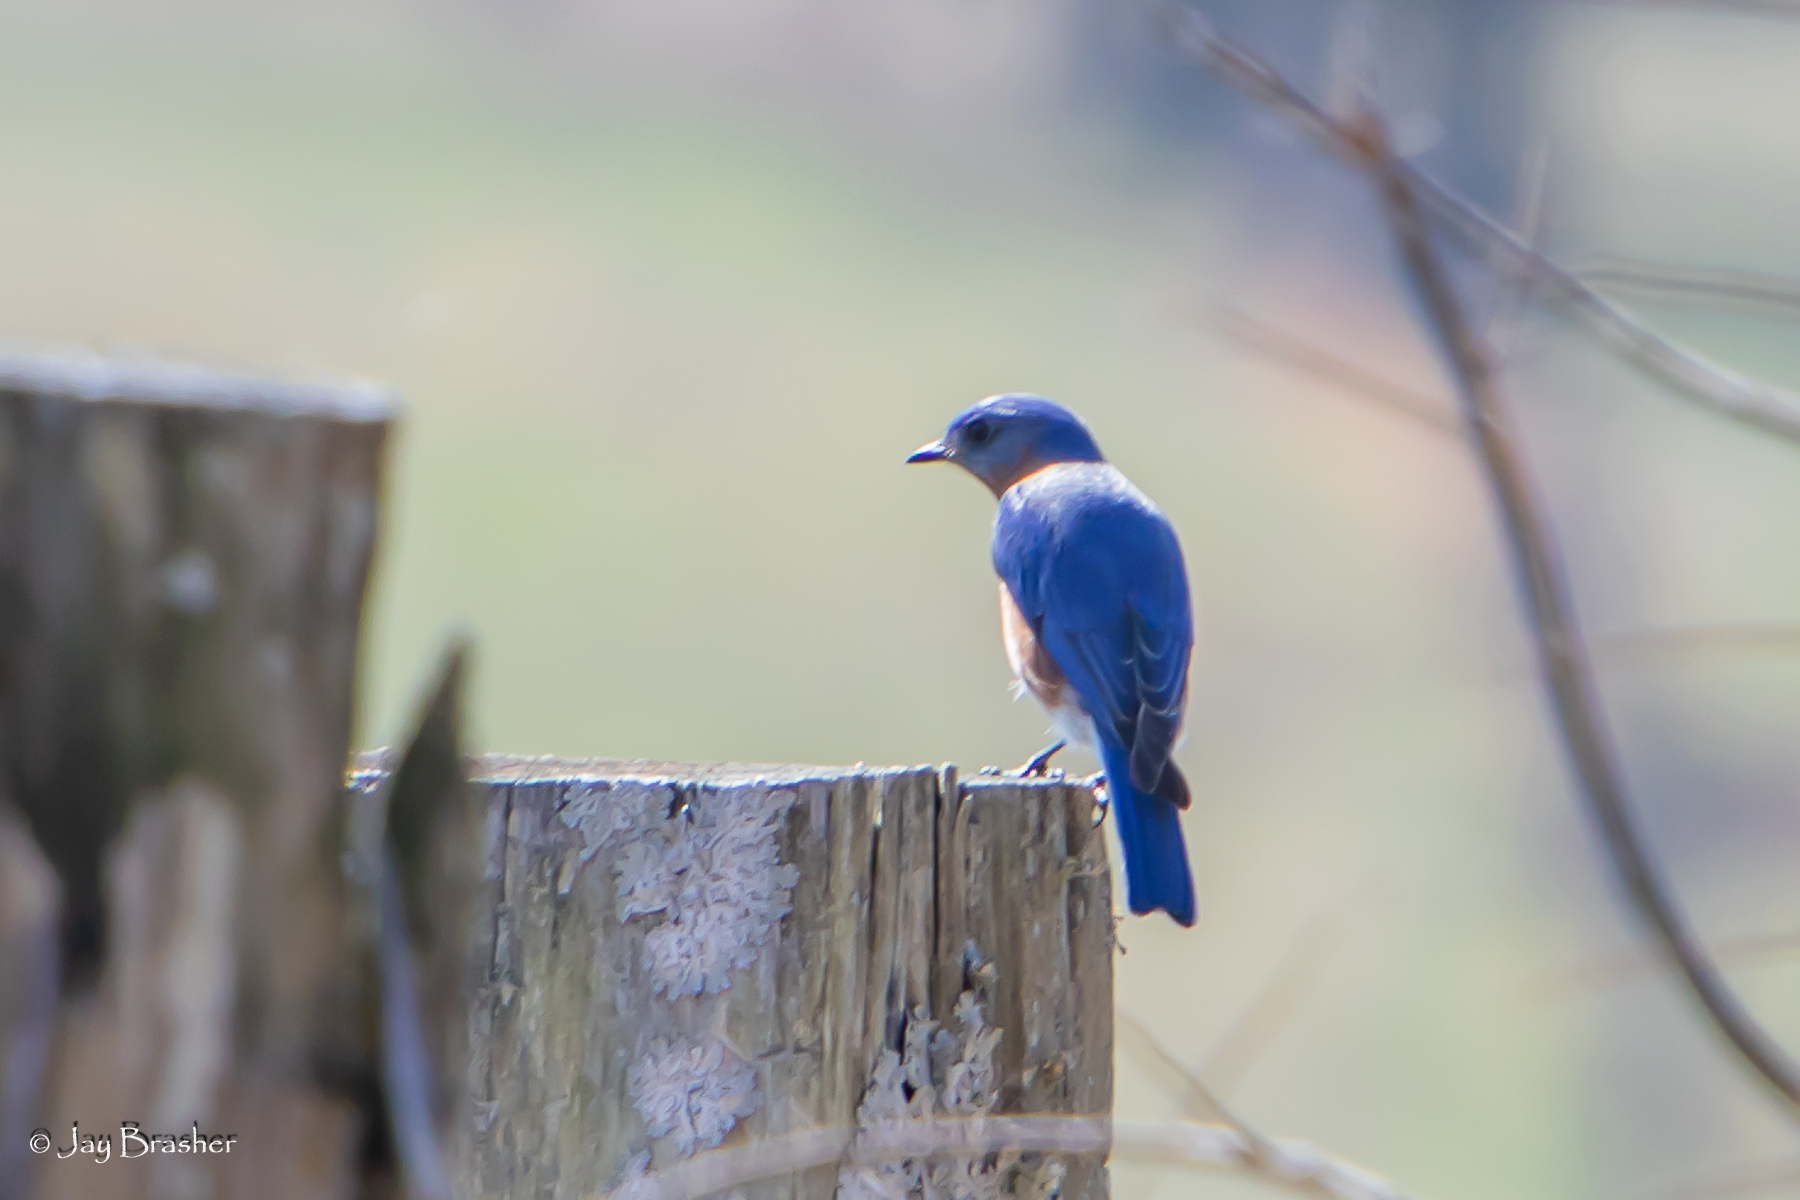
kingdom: Animalia
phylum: Chordata
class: Aves
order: Passeriformes
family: Turdidae
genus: Sialia
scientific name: Sialia sialis
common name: Eastern bluebird
